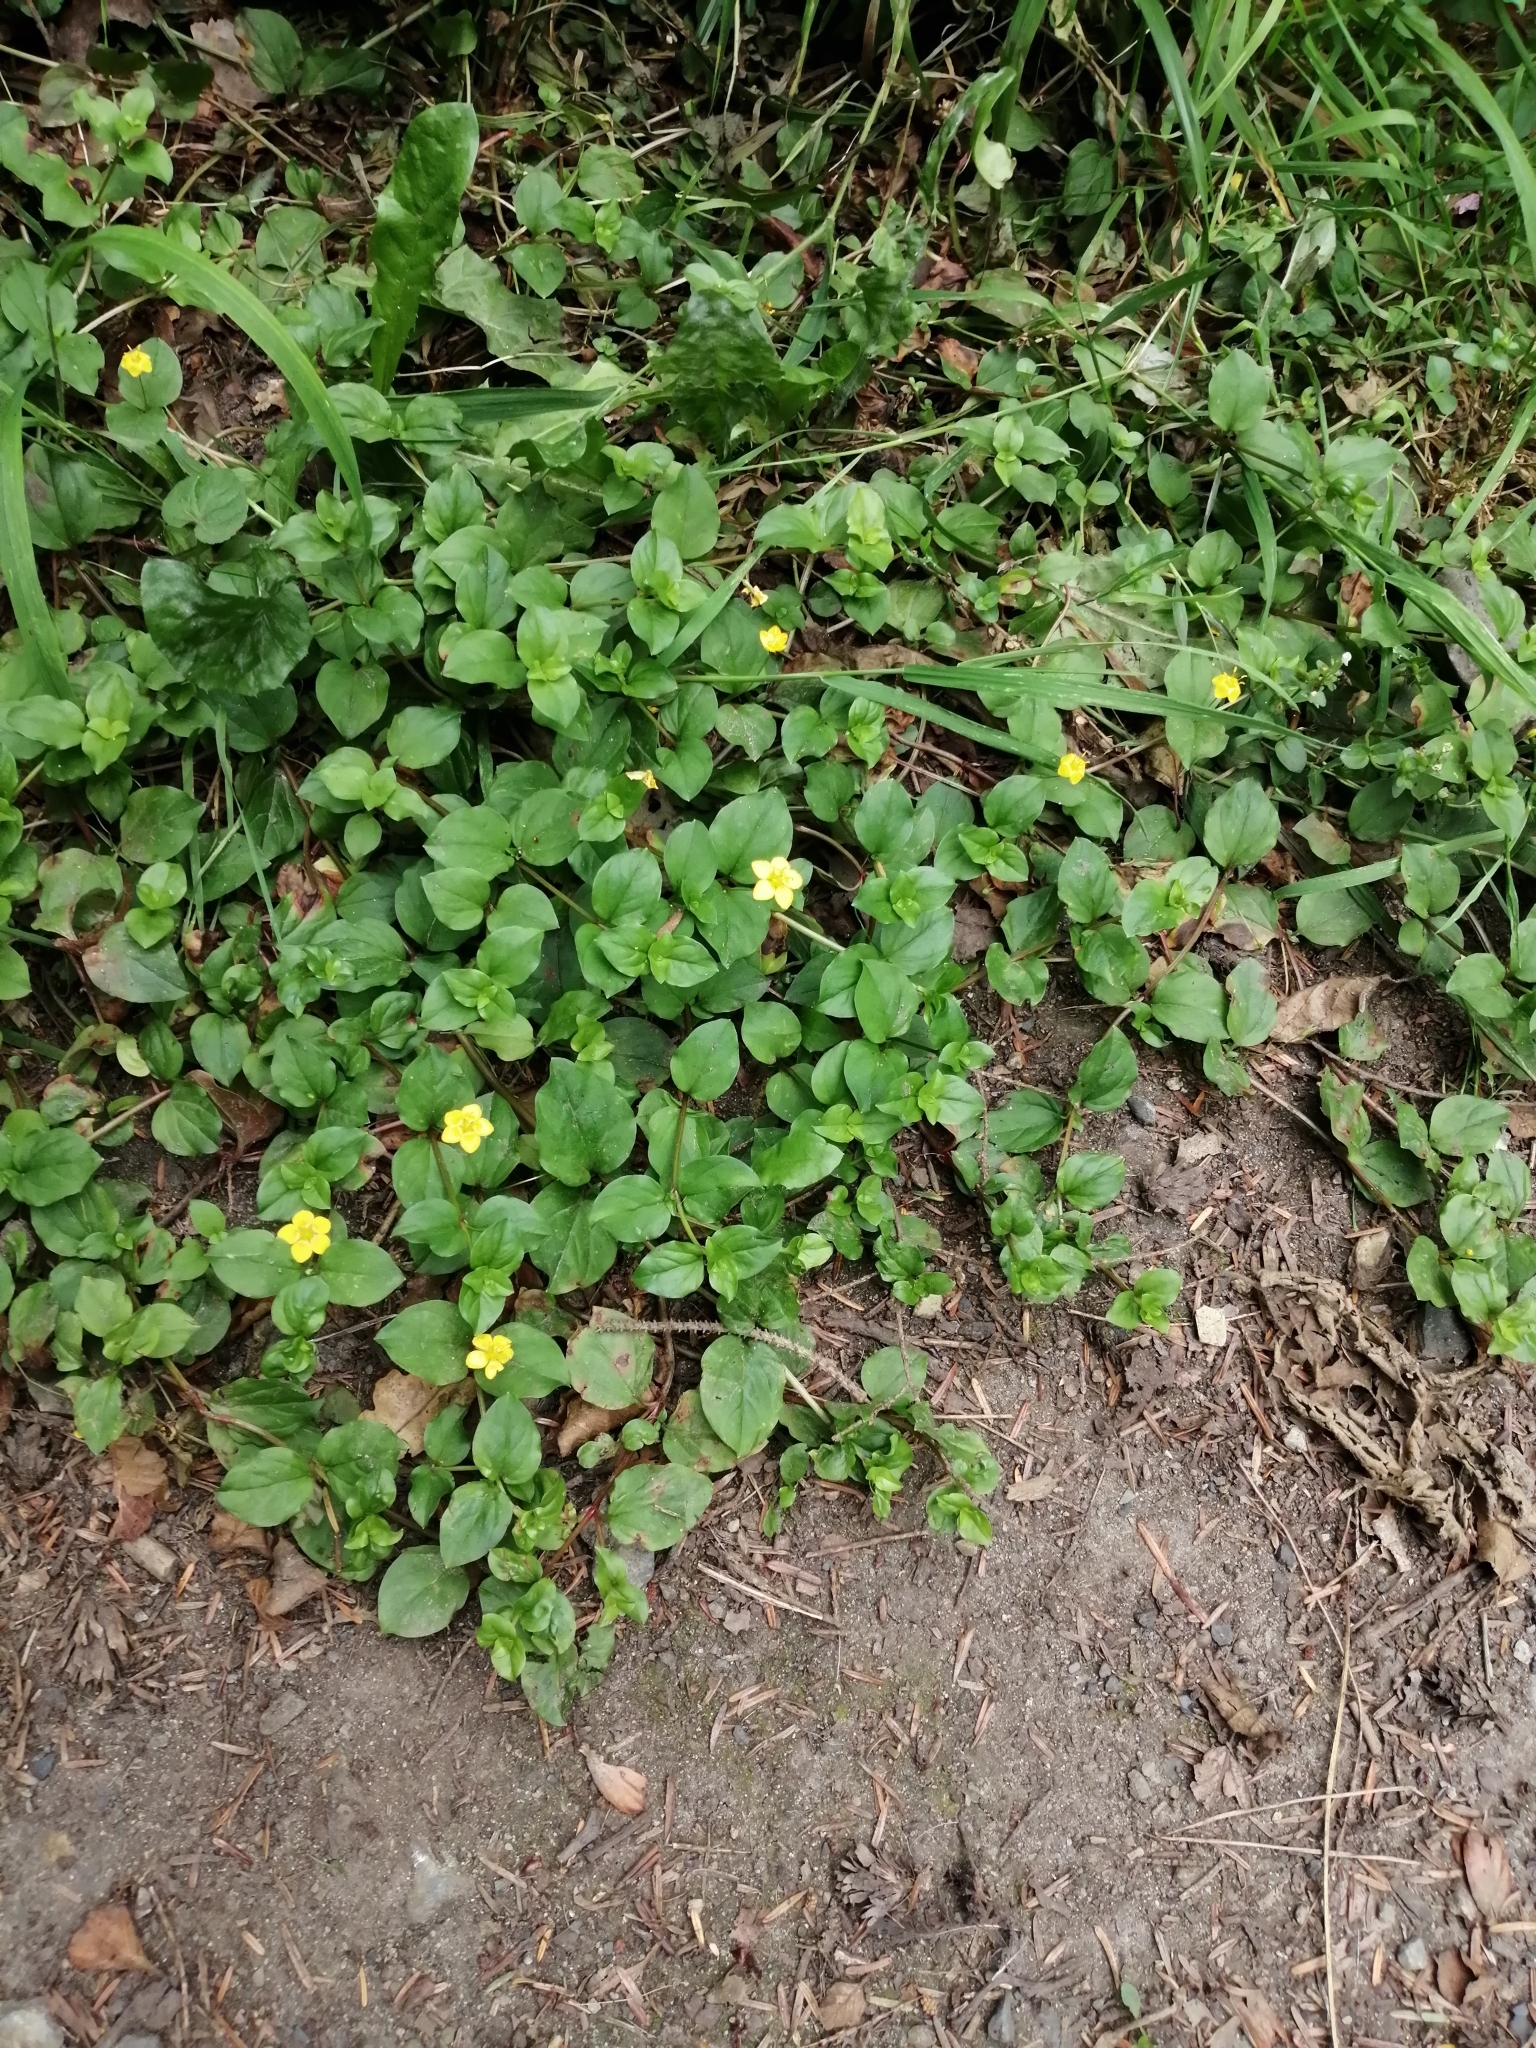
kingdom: Plantae
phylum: Tracheophyta
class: Magnoliopsida
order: Ericales
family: Primulaceae
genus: Lysimachia
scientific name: Lysimachia nemorum
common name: Yellow pimpernel
